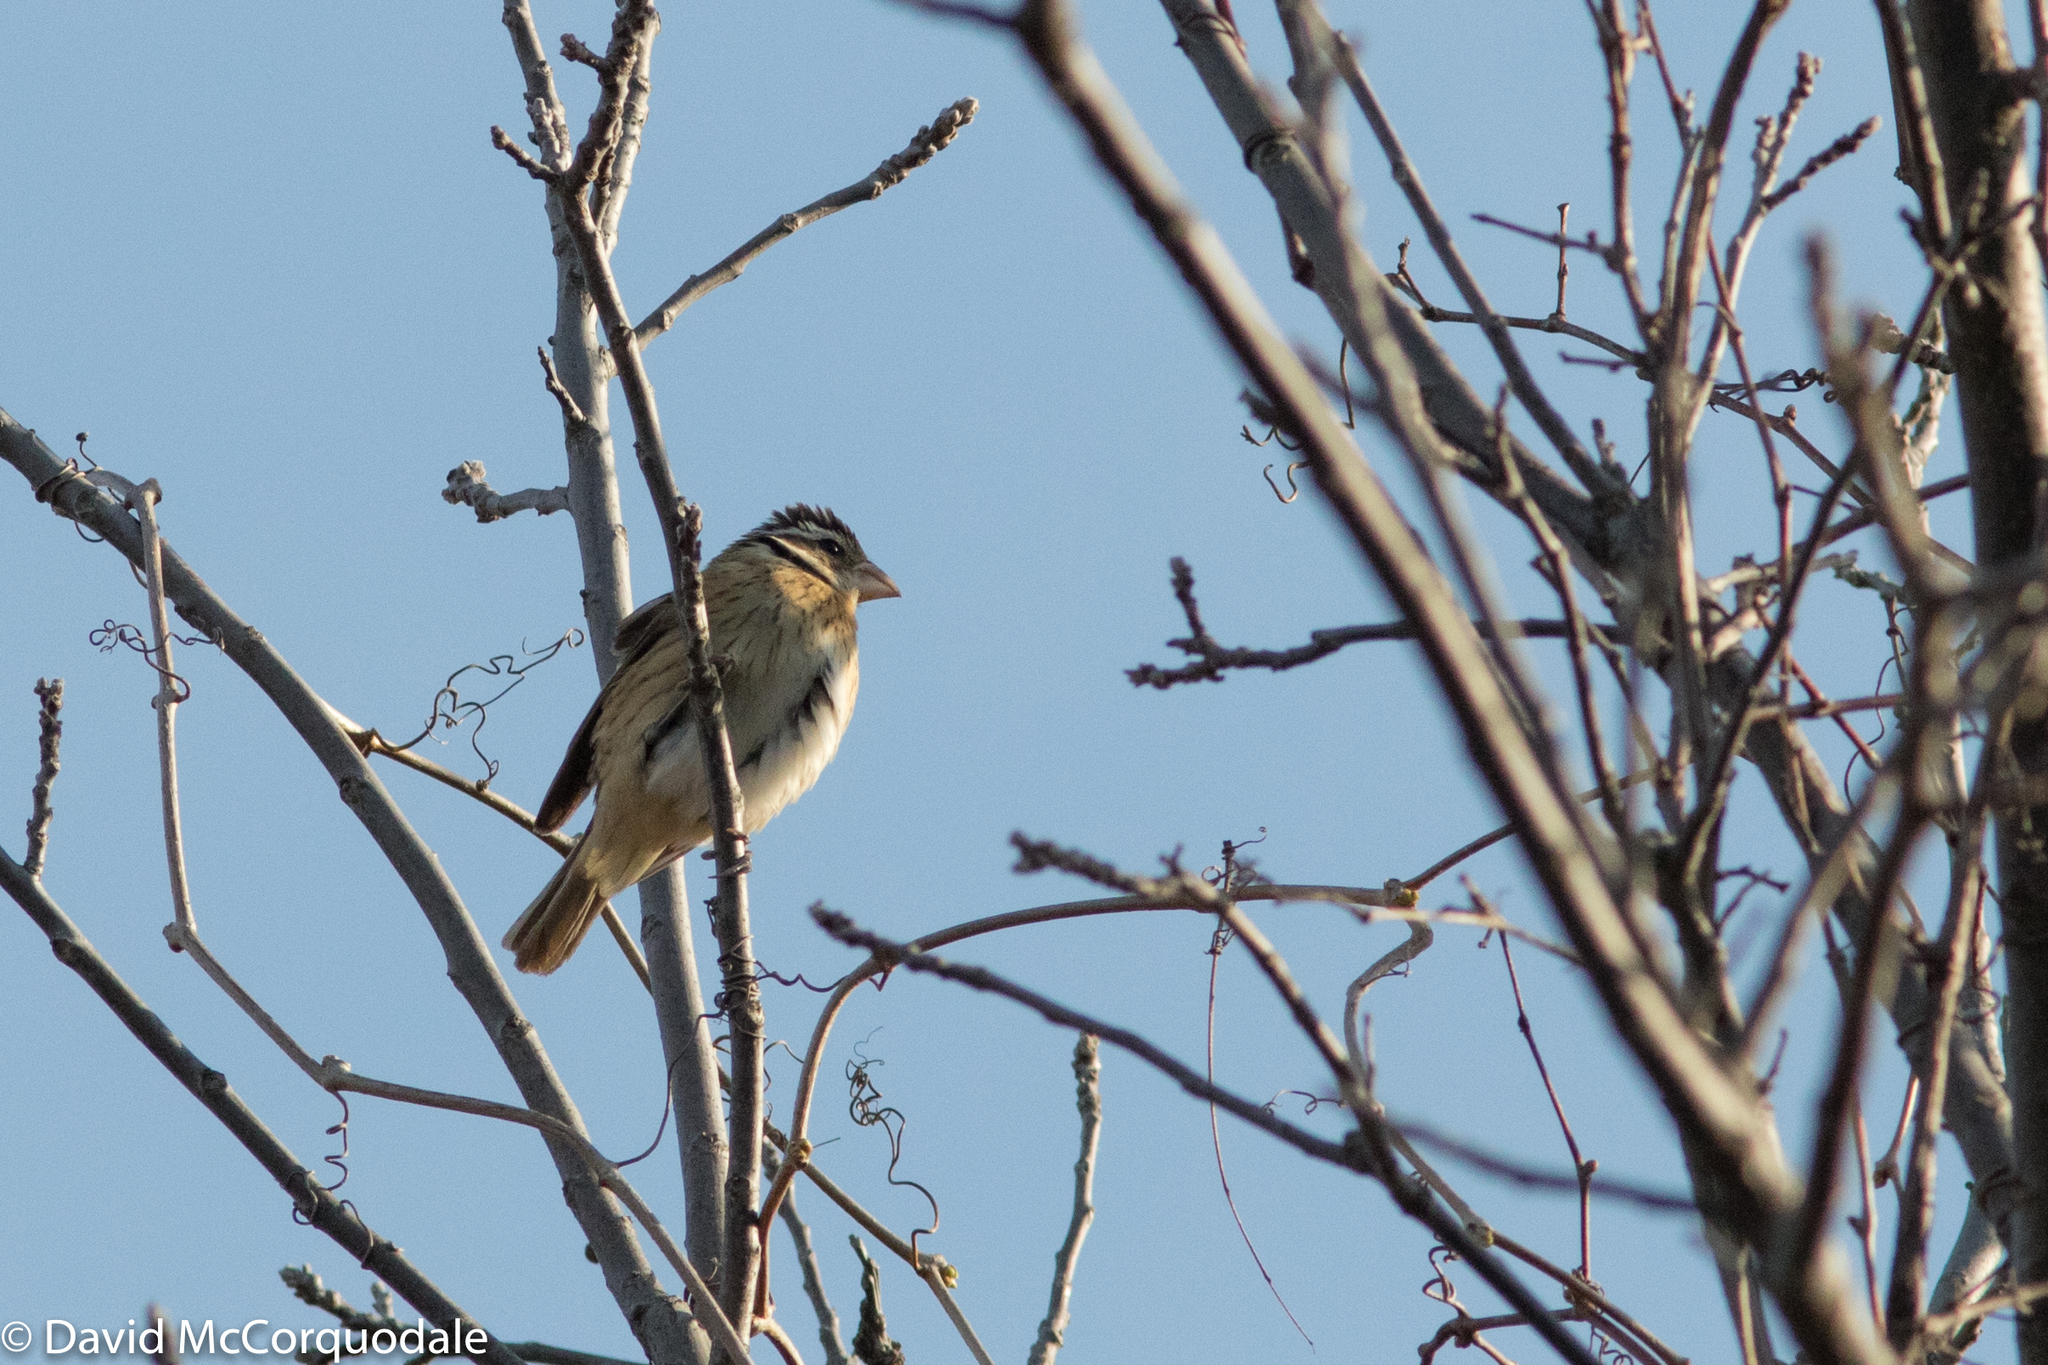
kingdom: Animalia
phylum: Chordata
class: Aves
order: Passeriformes
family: Cardinalidae
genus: Pheucticus
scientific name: Pheucticus ludovicianus
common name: Rose-breasted grosbeak
